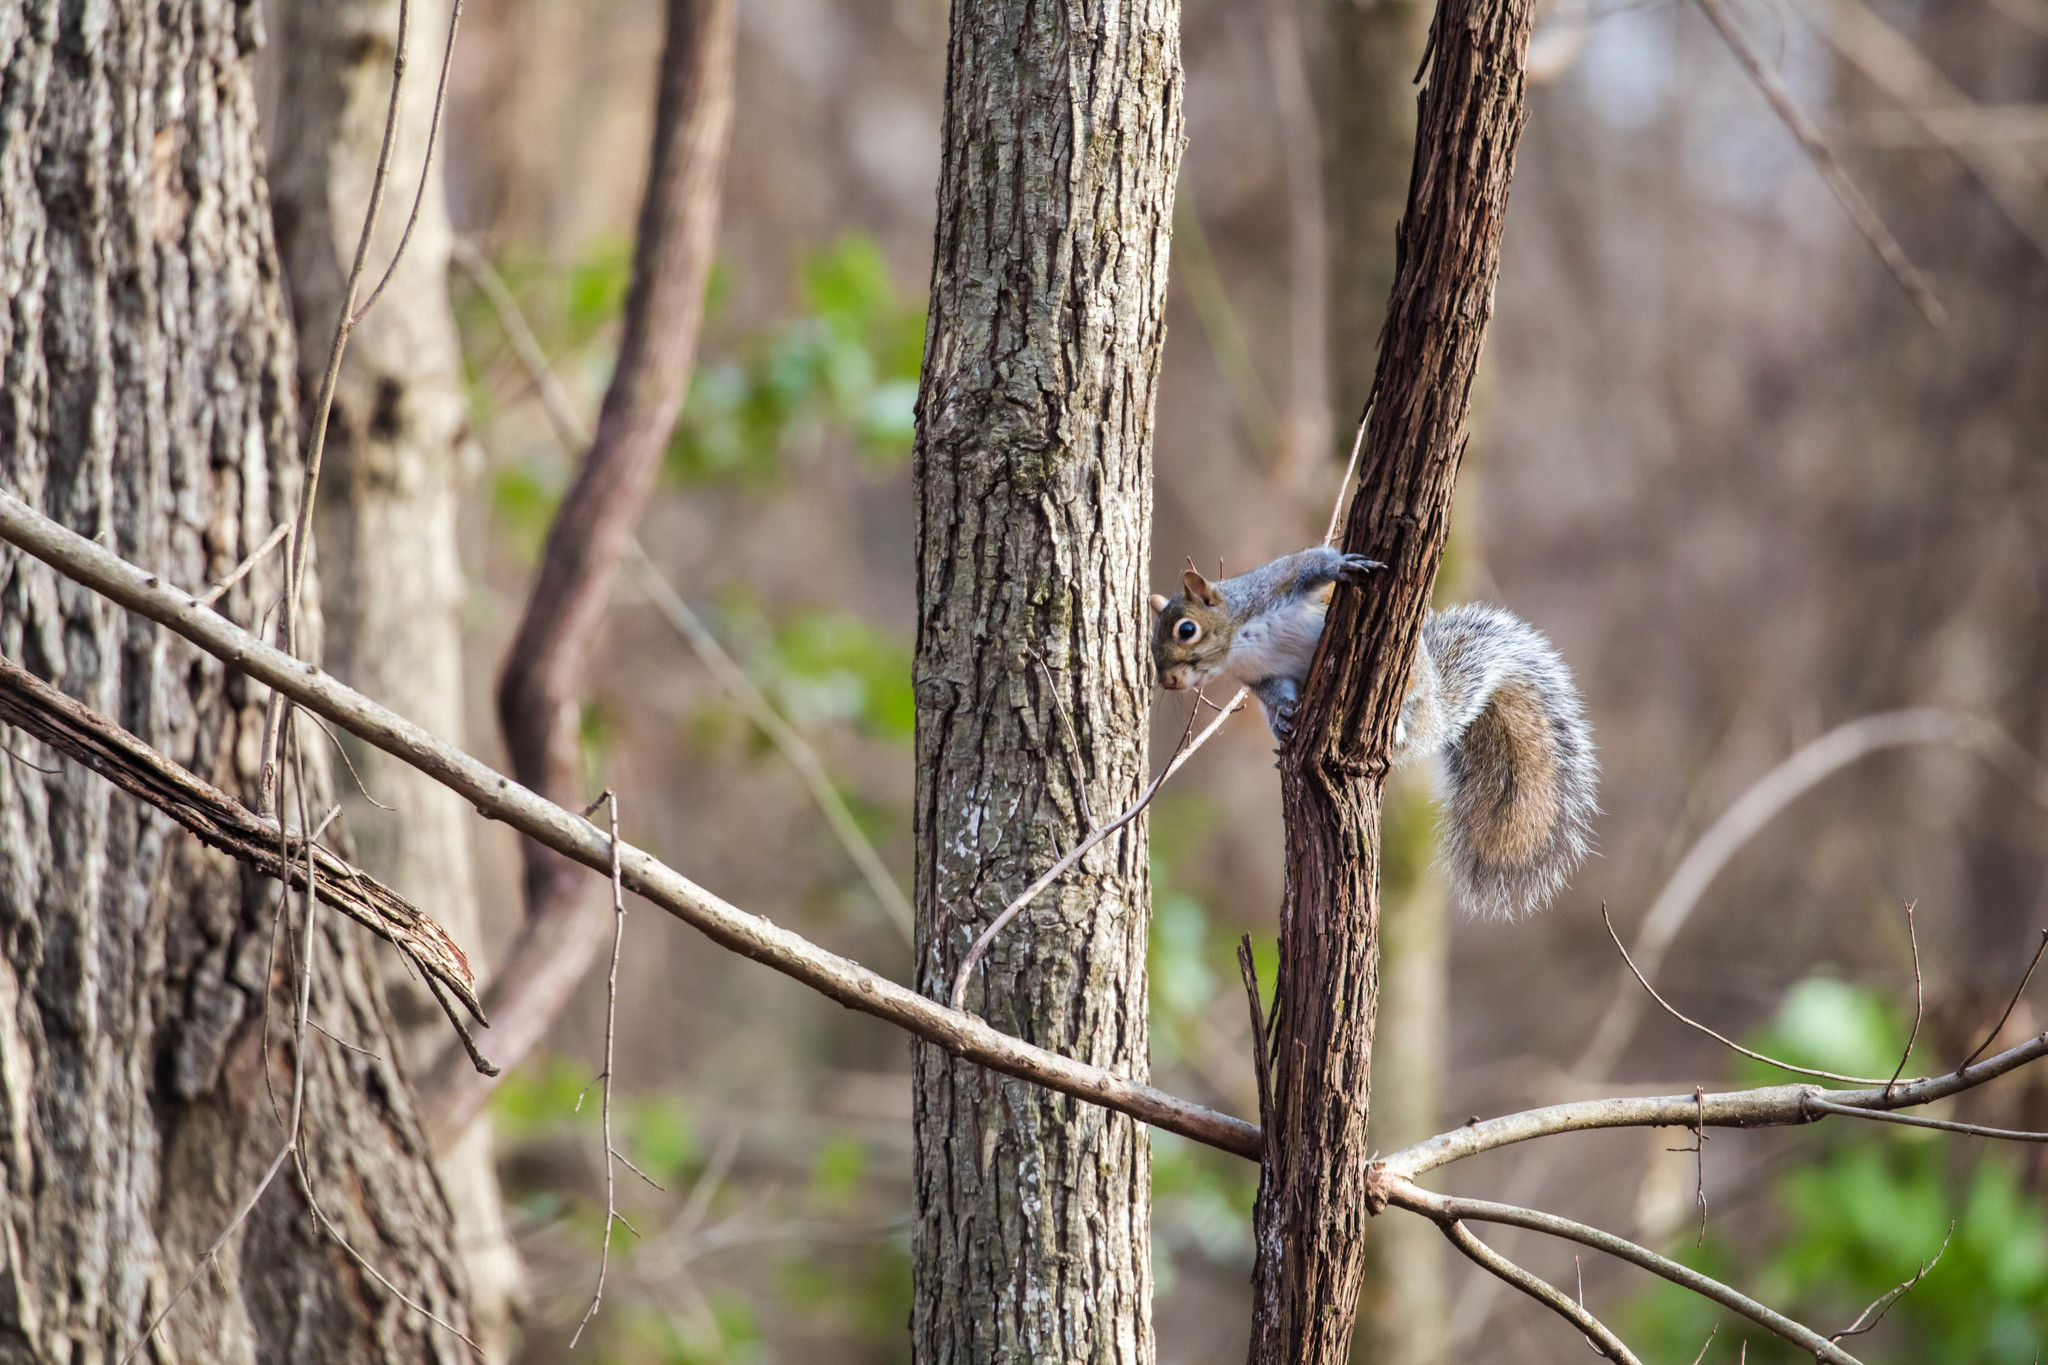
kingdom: Animalia
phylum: Chordata
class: Mammalia
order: Rodentia
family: Sciuridae
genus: Sciurus
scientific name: Sciurus carolinensis
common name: Eastern gray squirrel
